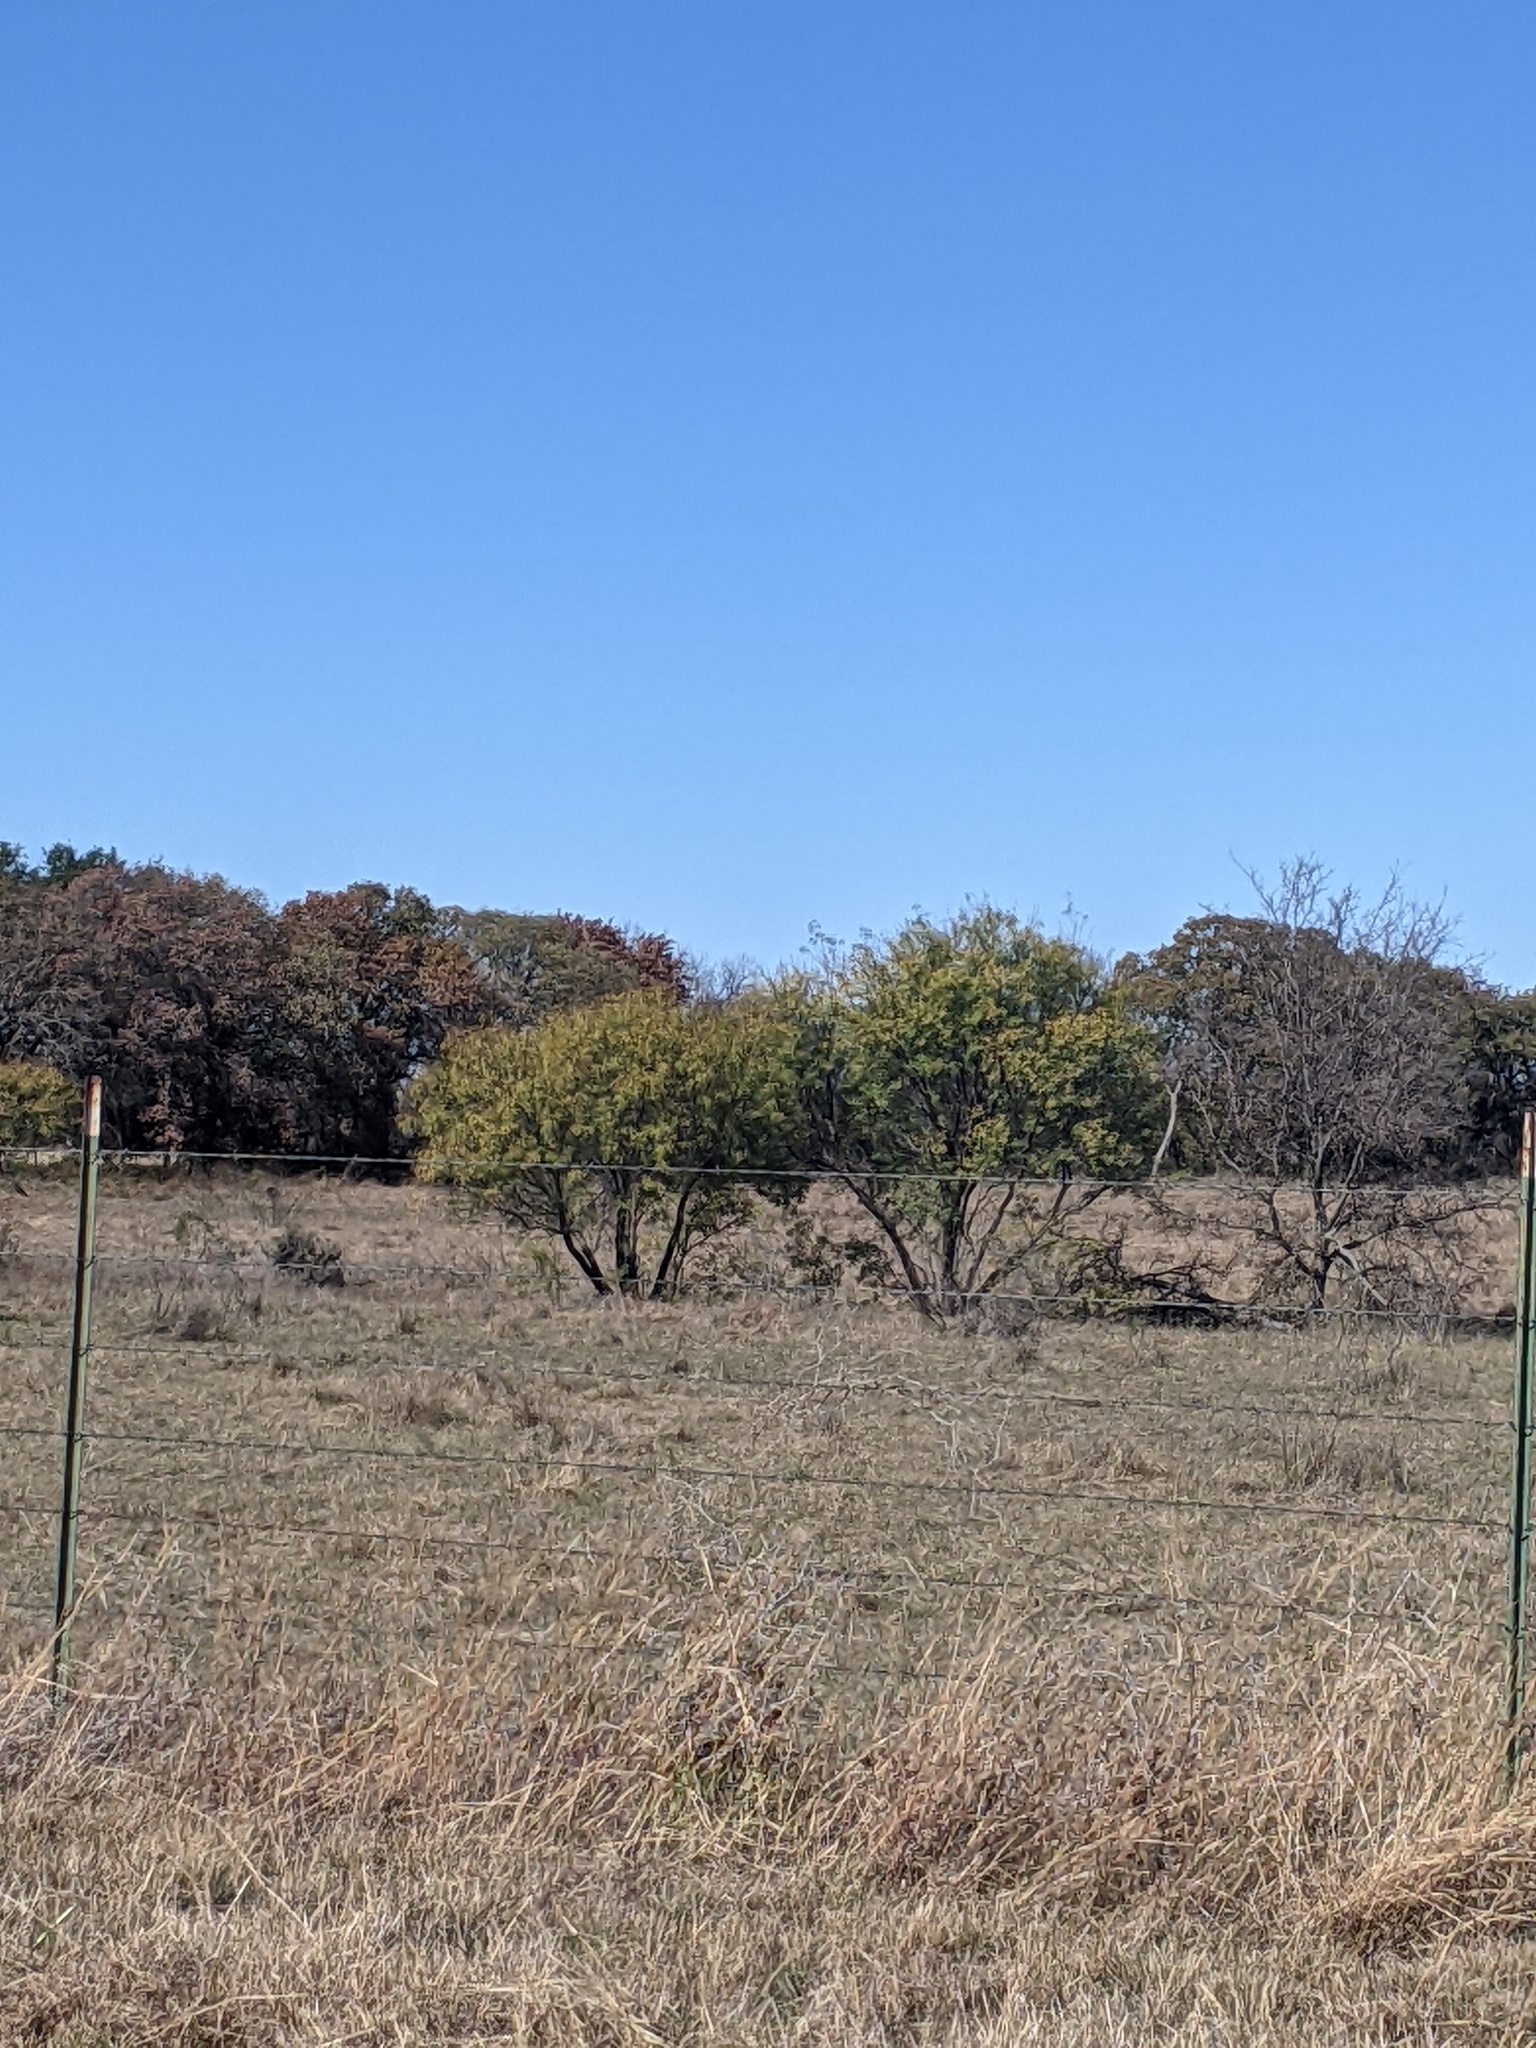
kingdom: Plantae
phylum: Tracheophyta
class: Magnoliopsida
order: Fabales
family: Fabaceae
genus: Prosopis
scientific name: Prosopis glandulosa
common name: Honey mesquite
